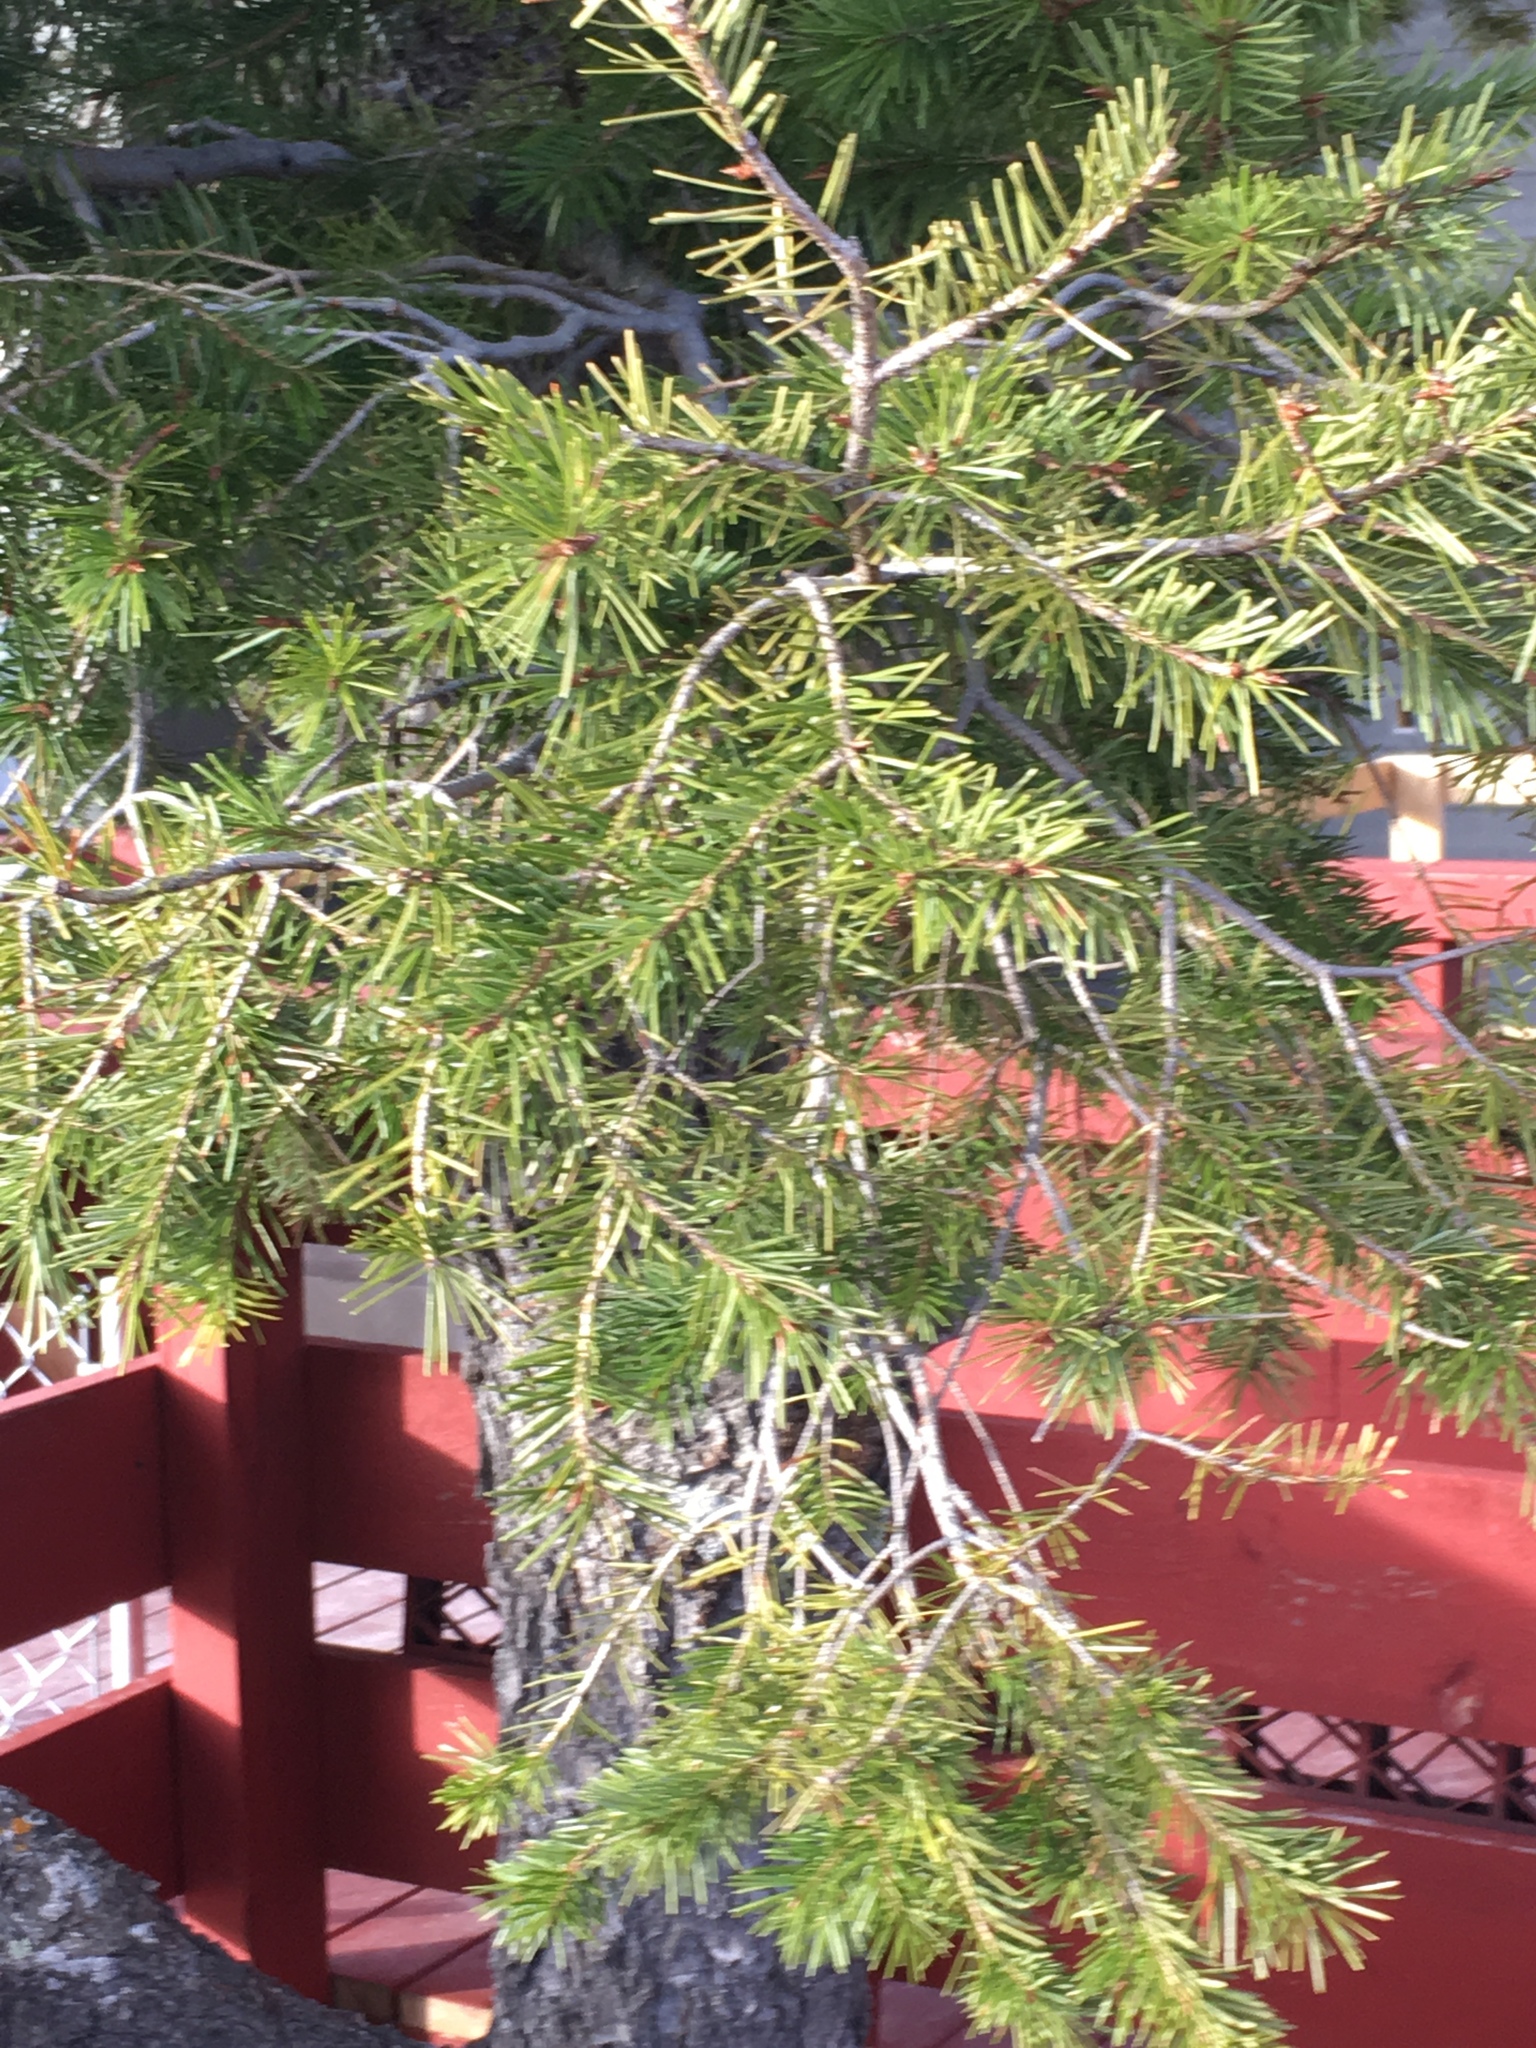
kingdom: Plantae
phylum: Tracheophyta
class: Pinopsida
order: Pinales
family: Pinaceae
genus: Pseudotsuga
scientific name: Pseudotsuga menziesii
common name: Douglas fir
